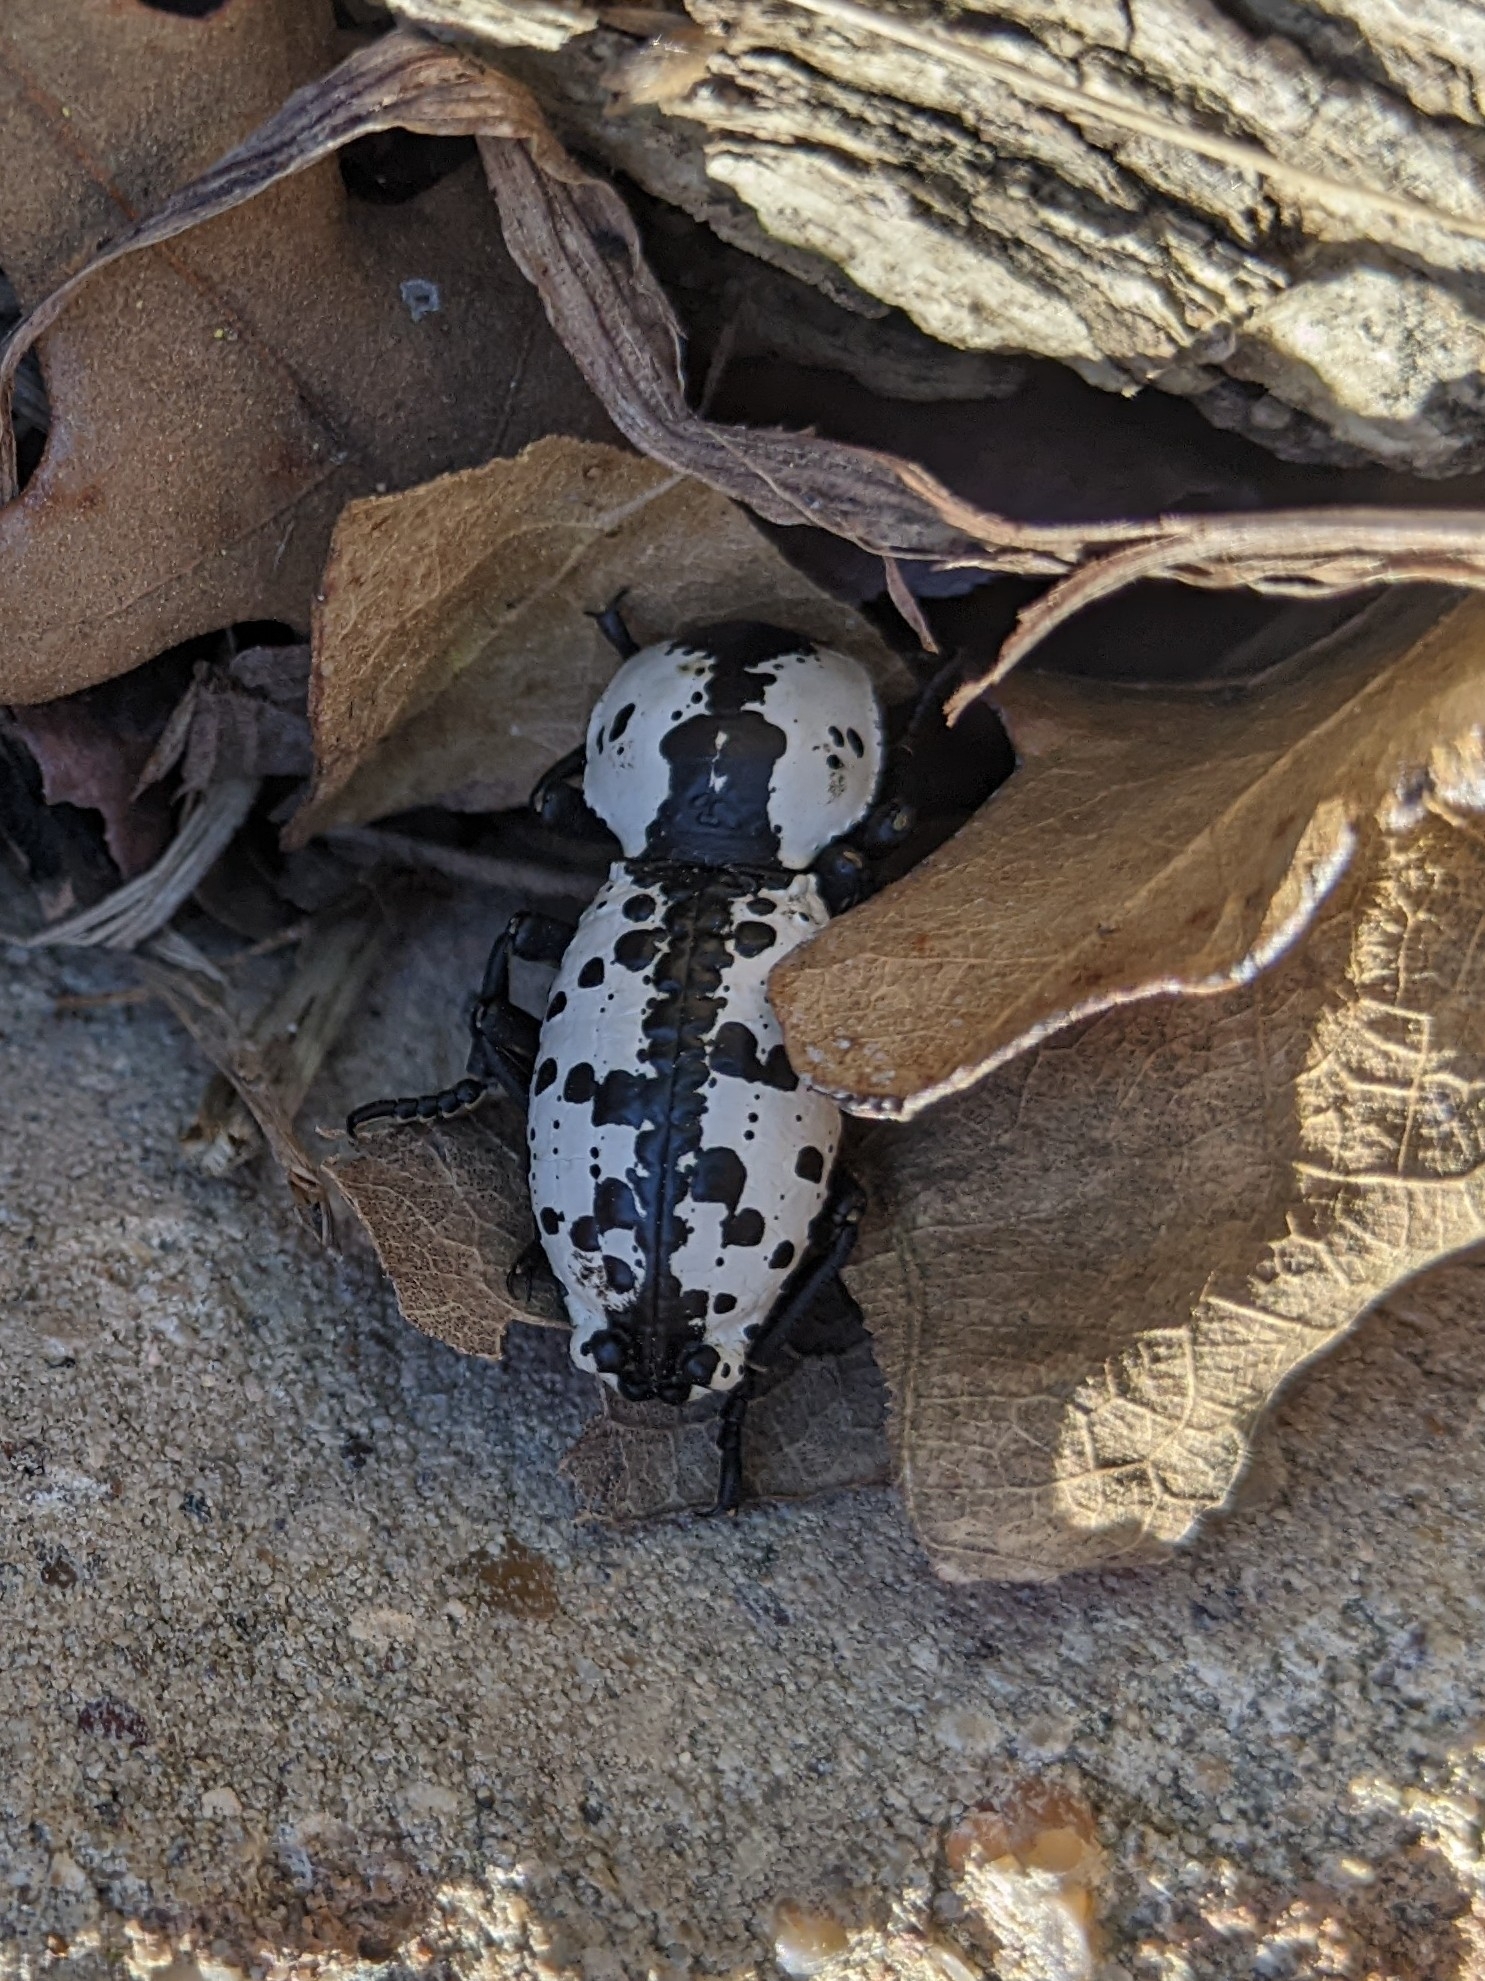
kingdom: Animalia
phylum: Arthropoda
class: Insecta
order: Coleoptera
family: Zopheridae
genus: Zopherus
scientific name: Zopherus nodulosus
